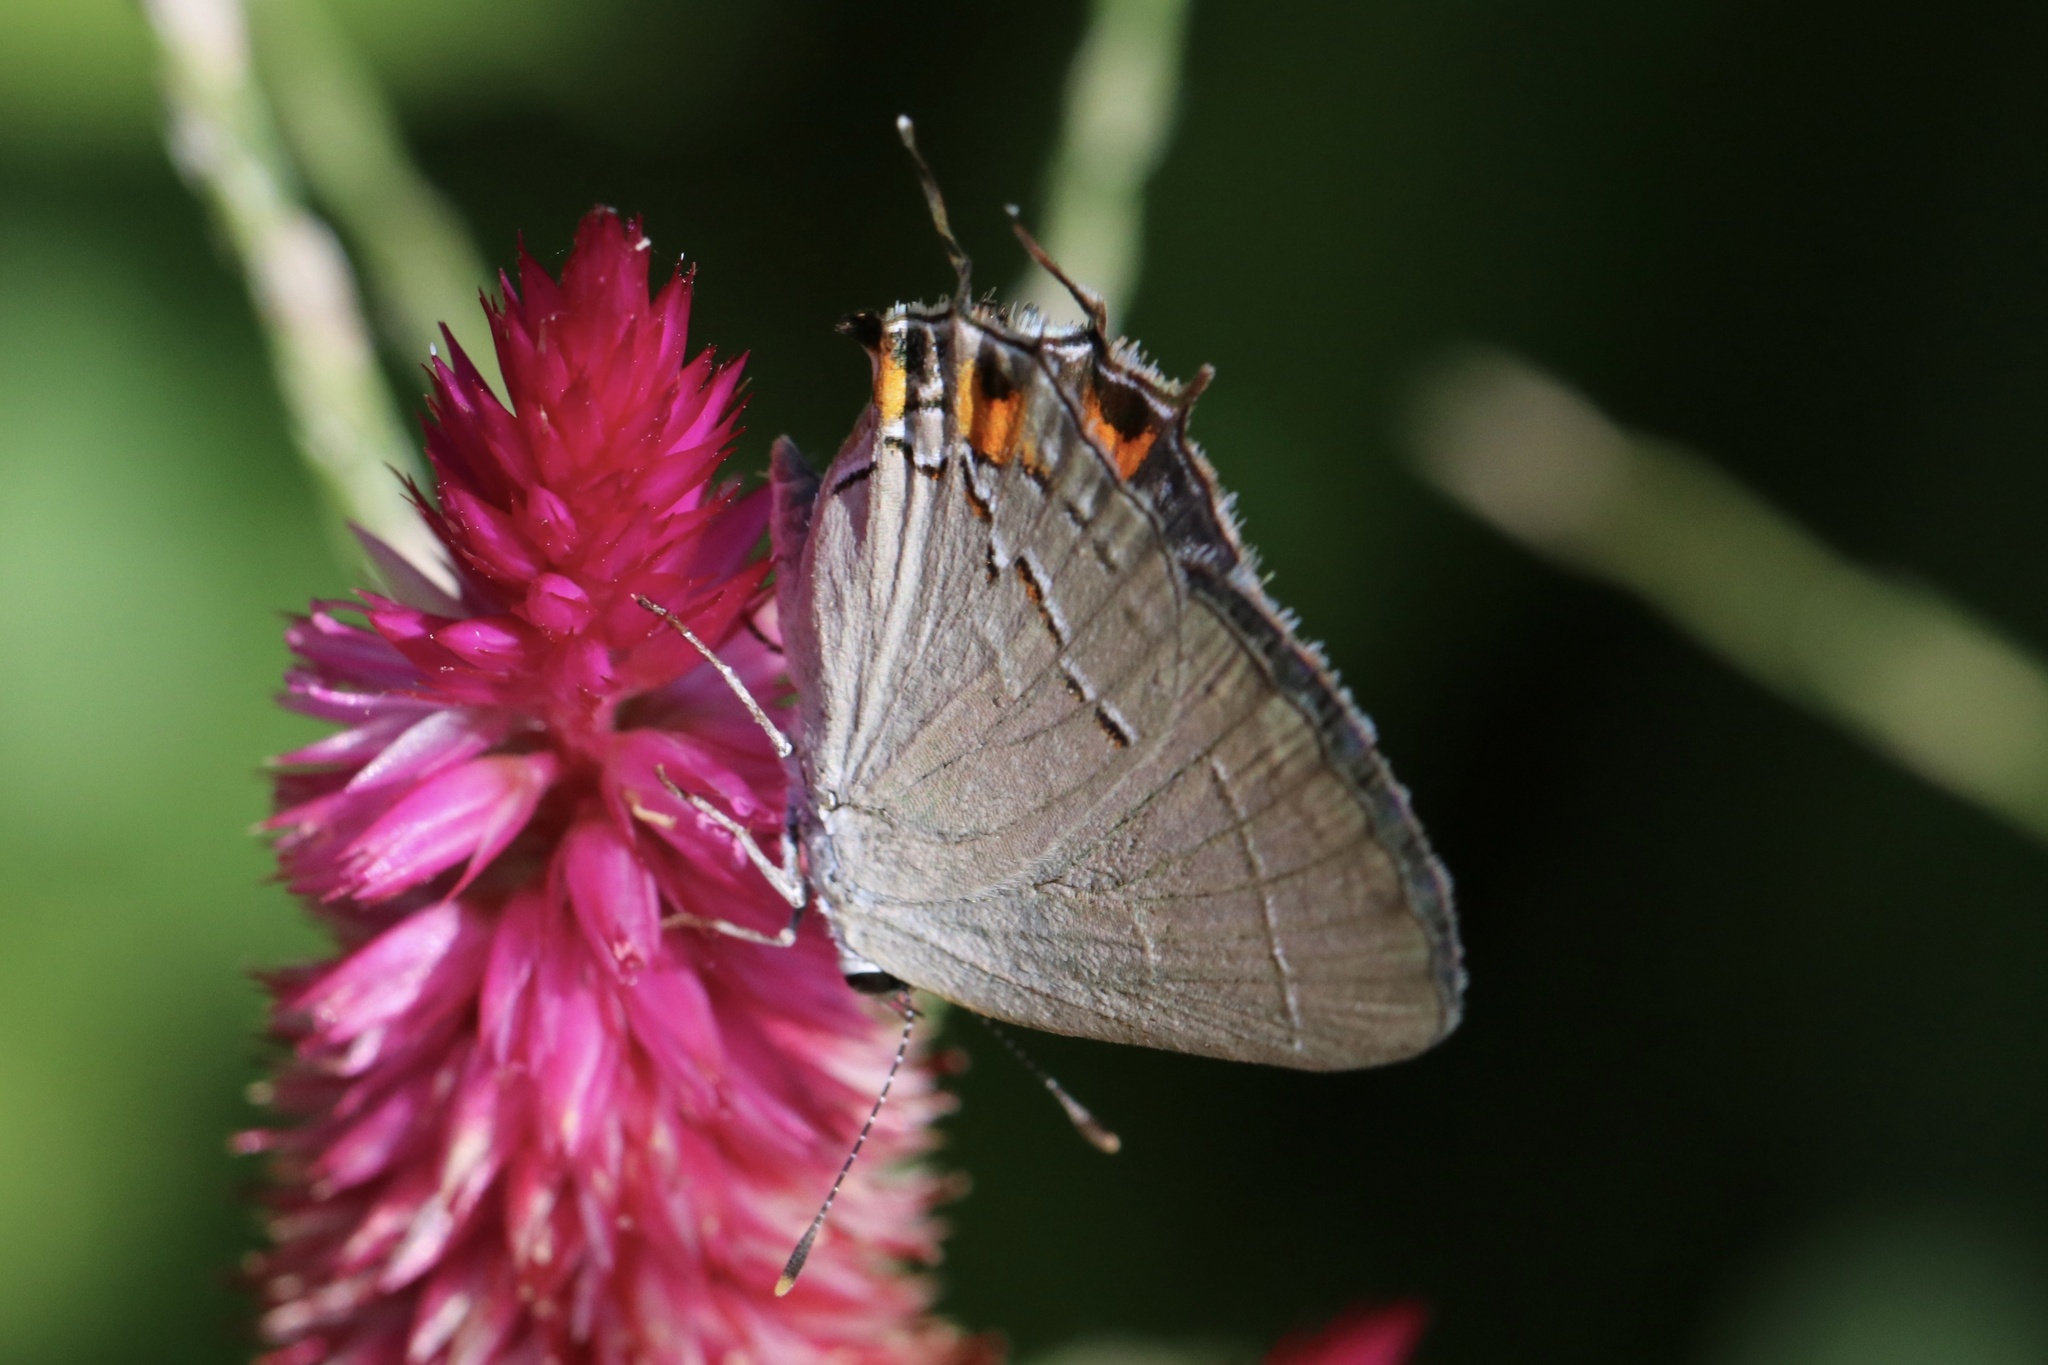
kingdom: Animalia
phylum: Arthropoda
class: Insecta
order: Lepidoptera
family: Lycaenidae
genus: Strymon
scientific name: Strymon melinus
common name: Gray hairstreak
